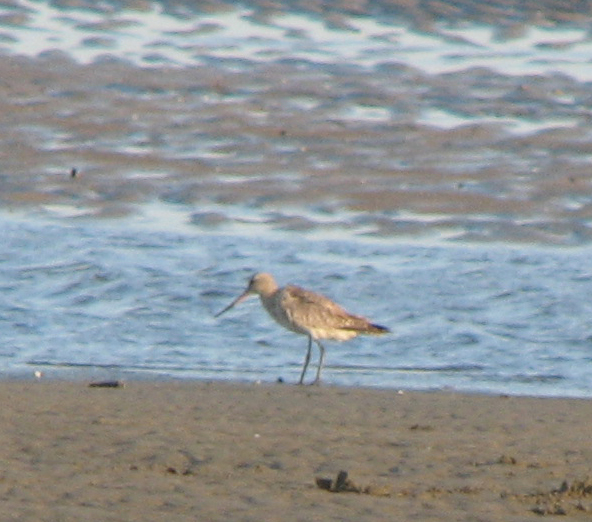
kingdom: Animalia
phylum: Chordata
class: Aves
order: Charadriiformes
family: Scolopacidae
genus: Limosa
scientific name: Limosa lapponica
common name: Bar-tailed godwit
